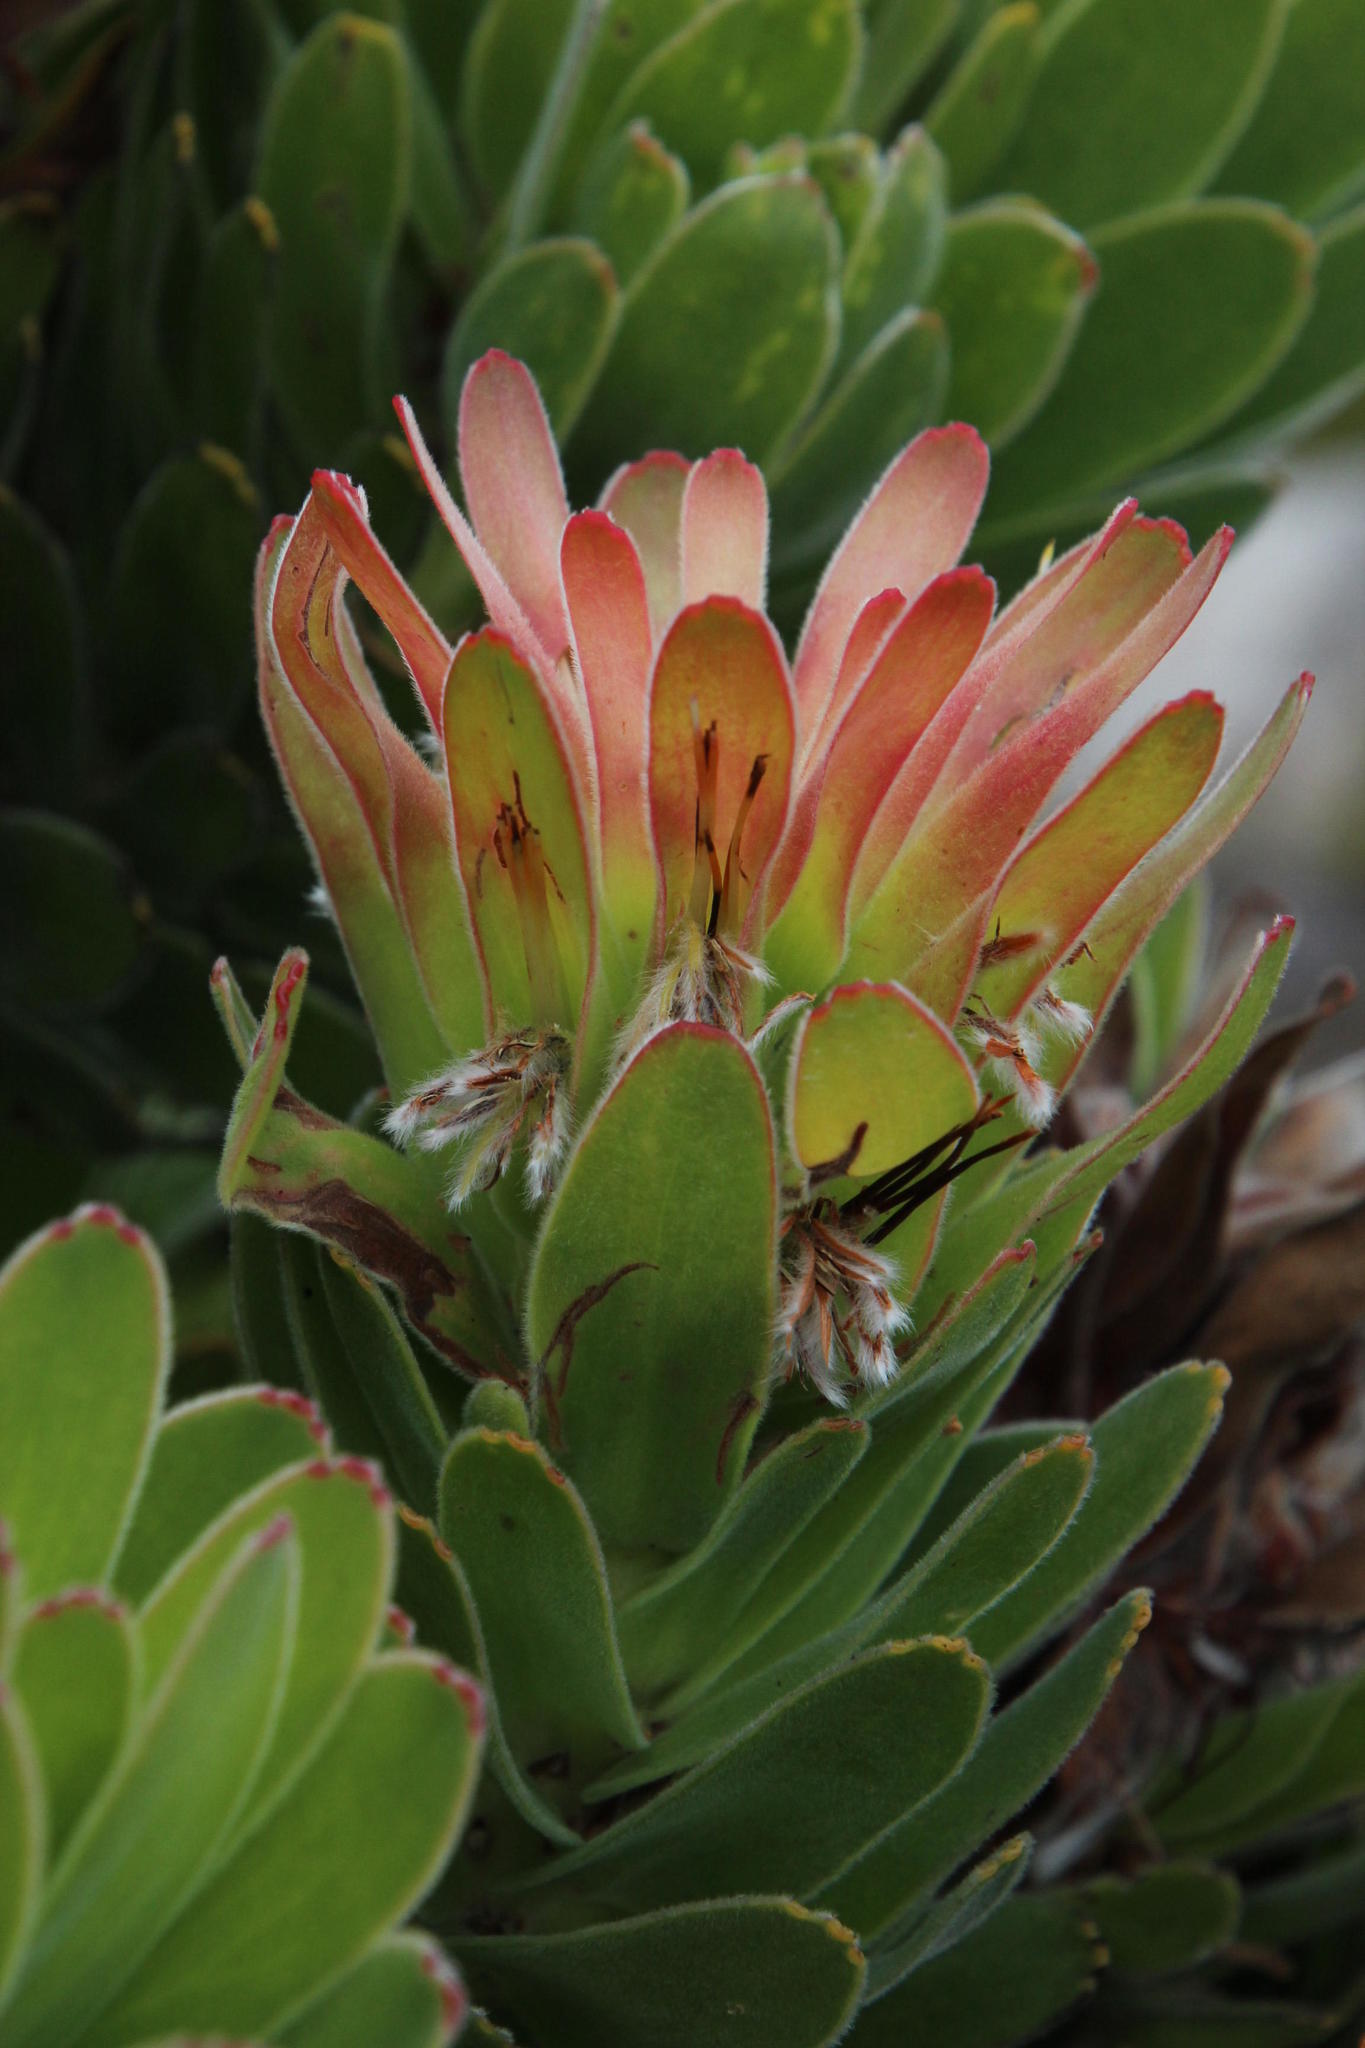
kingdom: Plantae
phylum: Tracheophyta
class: Magnoliopsida
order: Proteales
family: Proteaceae
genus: Mimetes
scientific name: Mimetes fimbriifolius
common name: Fringed bottlebrush
